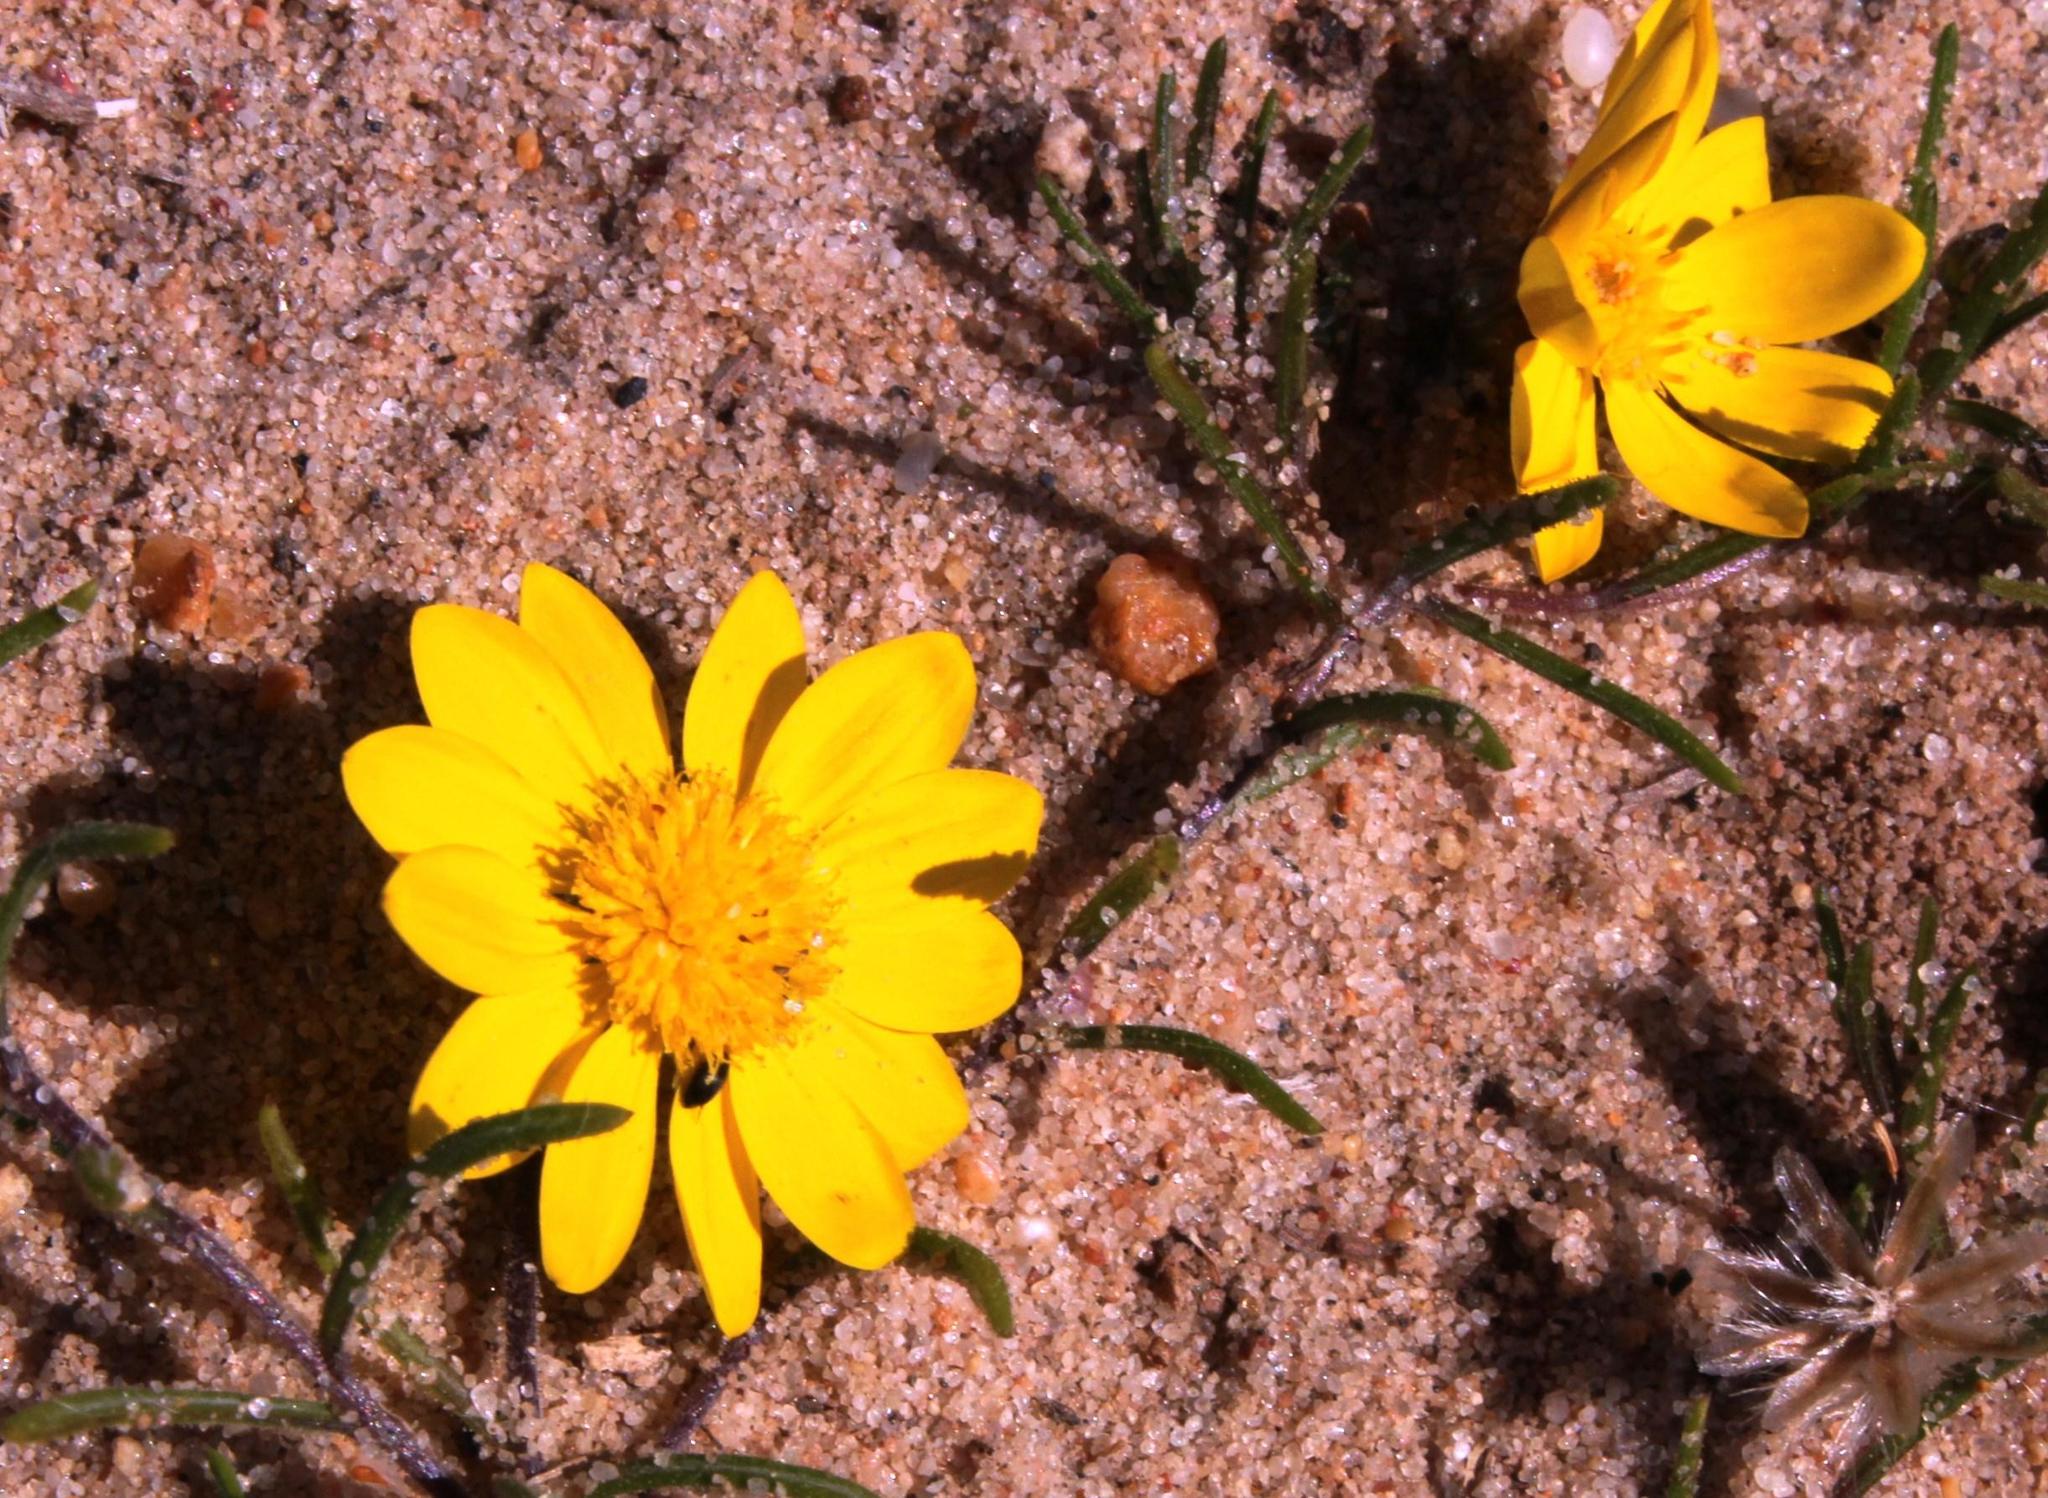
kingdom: Plantae
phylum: Tracheophyta
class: Magnoliopsida
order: Asterales
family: Asteraceae
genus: Rhynchopsidium
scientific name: Rhynchopsidium pumilum
